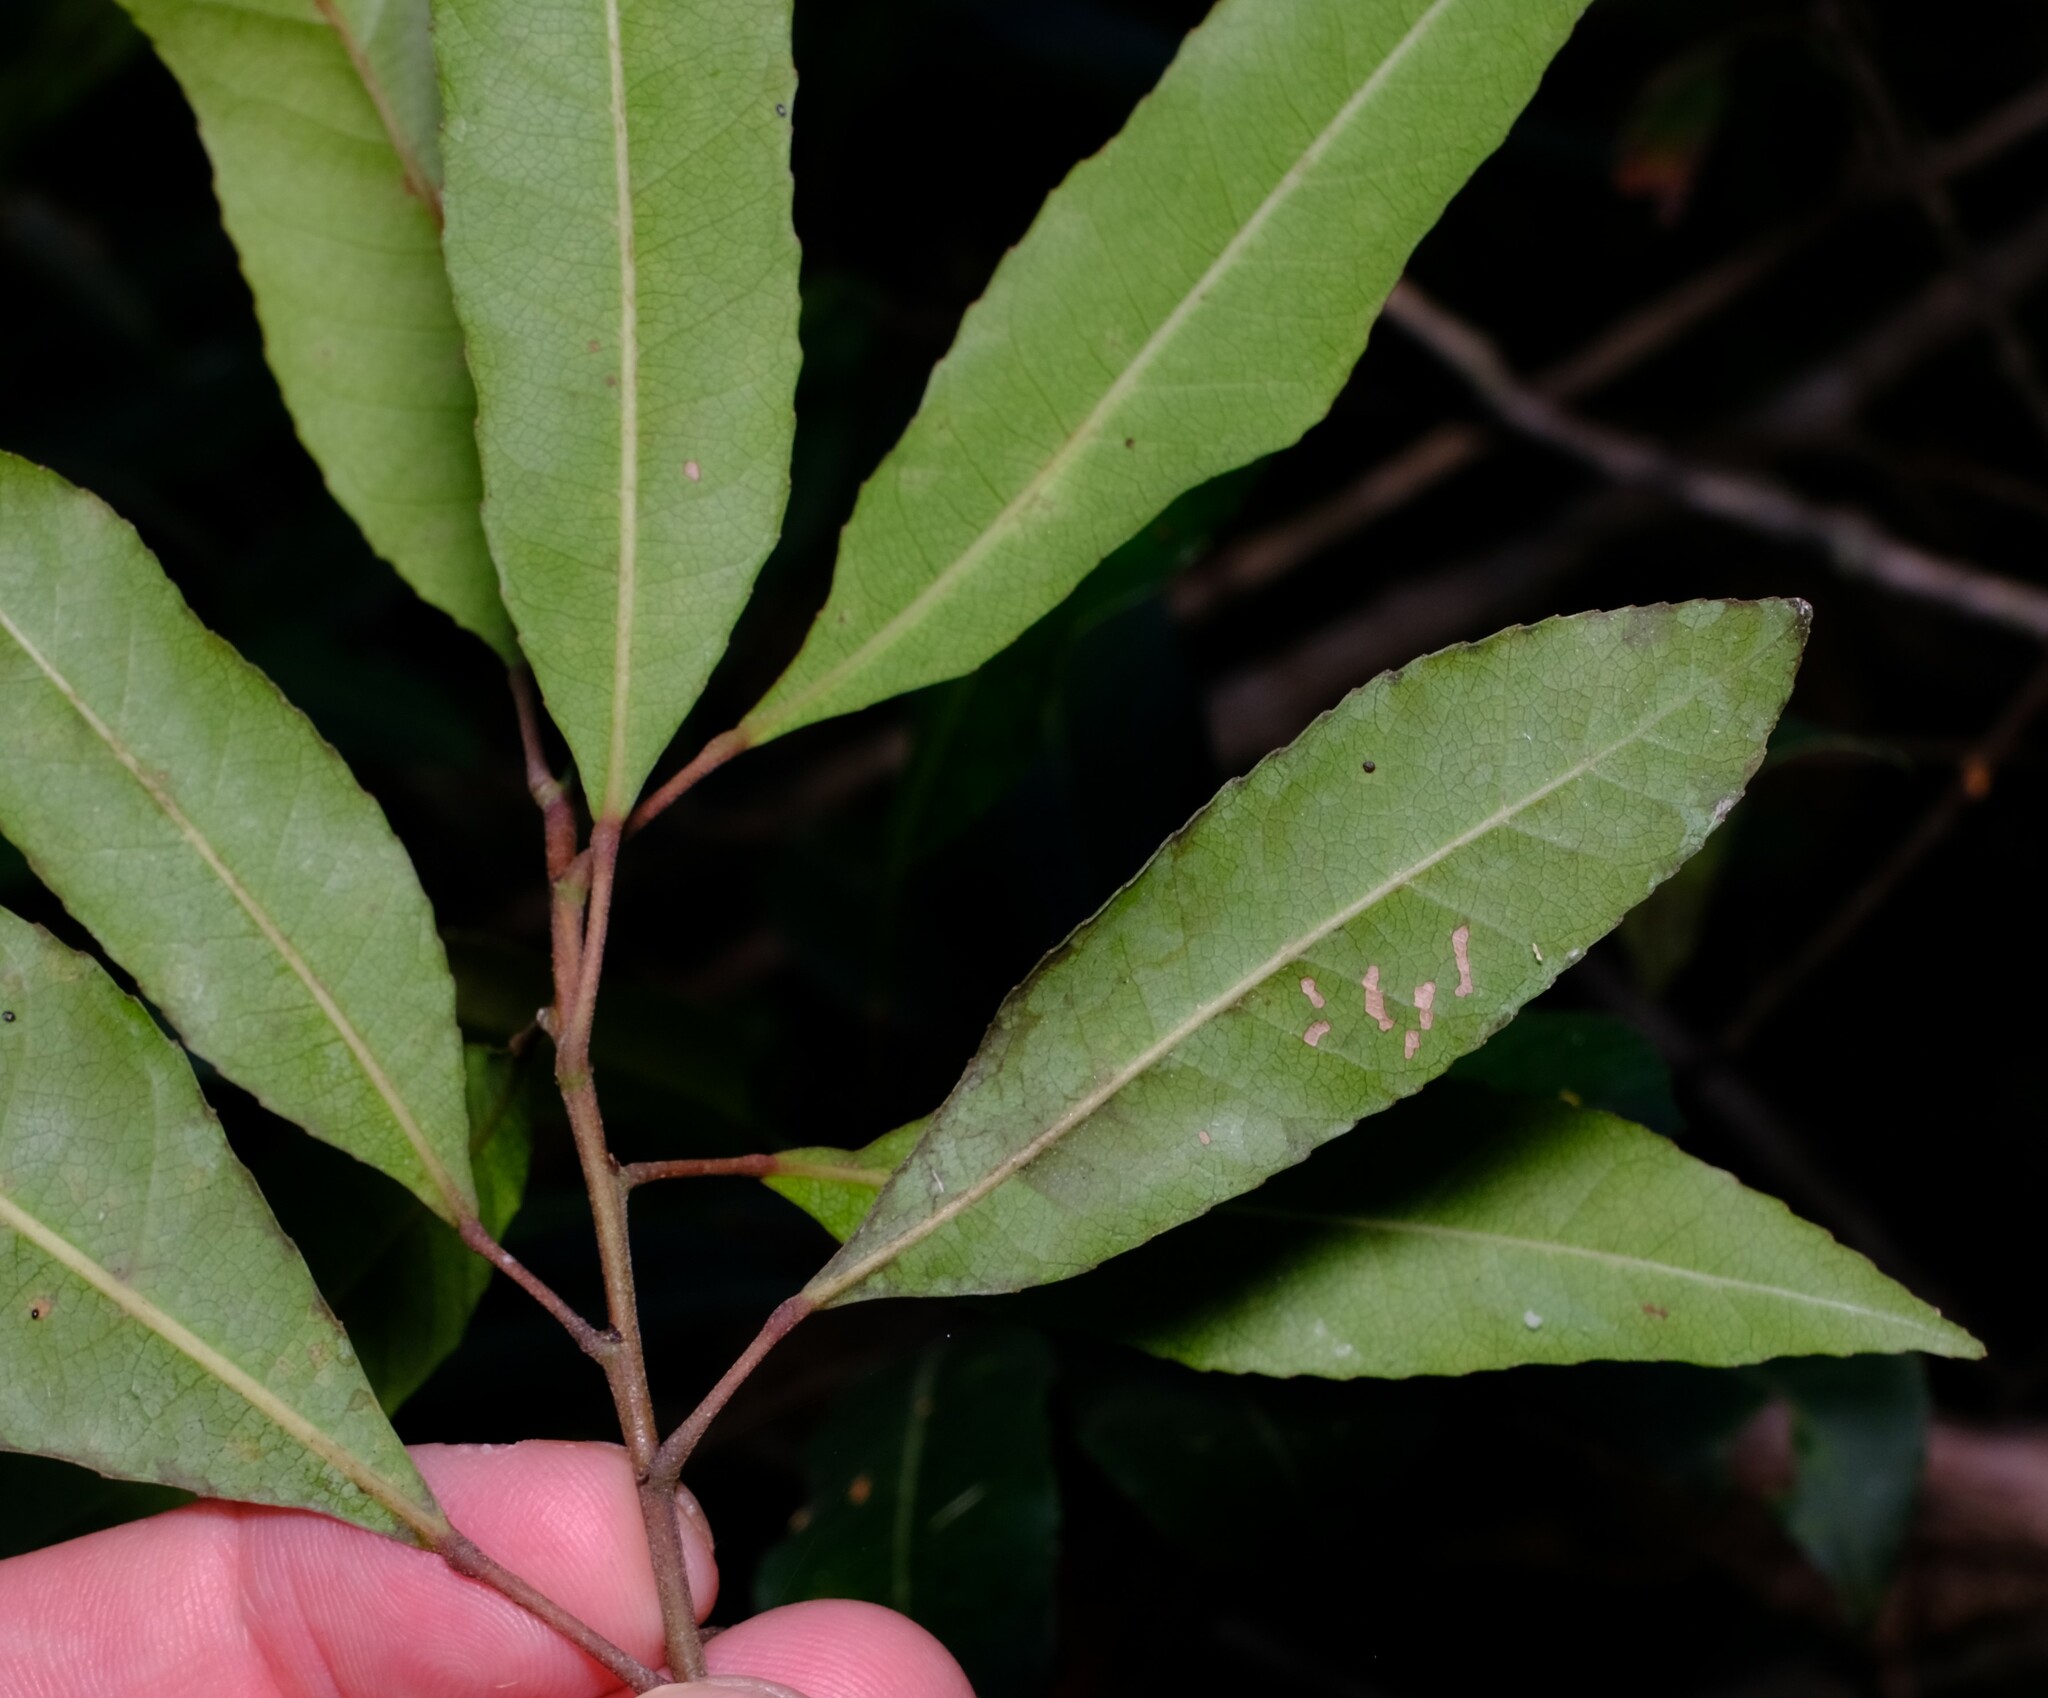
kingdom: Plantae
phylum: Tracheophyta
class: Magnoliopsida
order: Oxalidales
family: Elaeocarpaceae
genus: Elaeocarpus
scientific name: Elaeocarpus reticulatus
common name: Ash quandong
